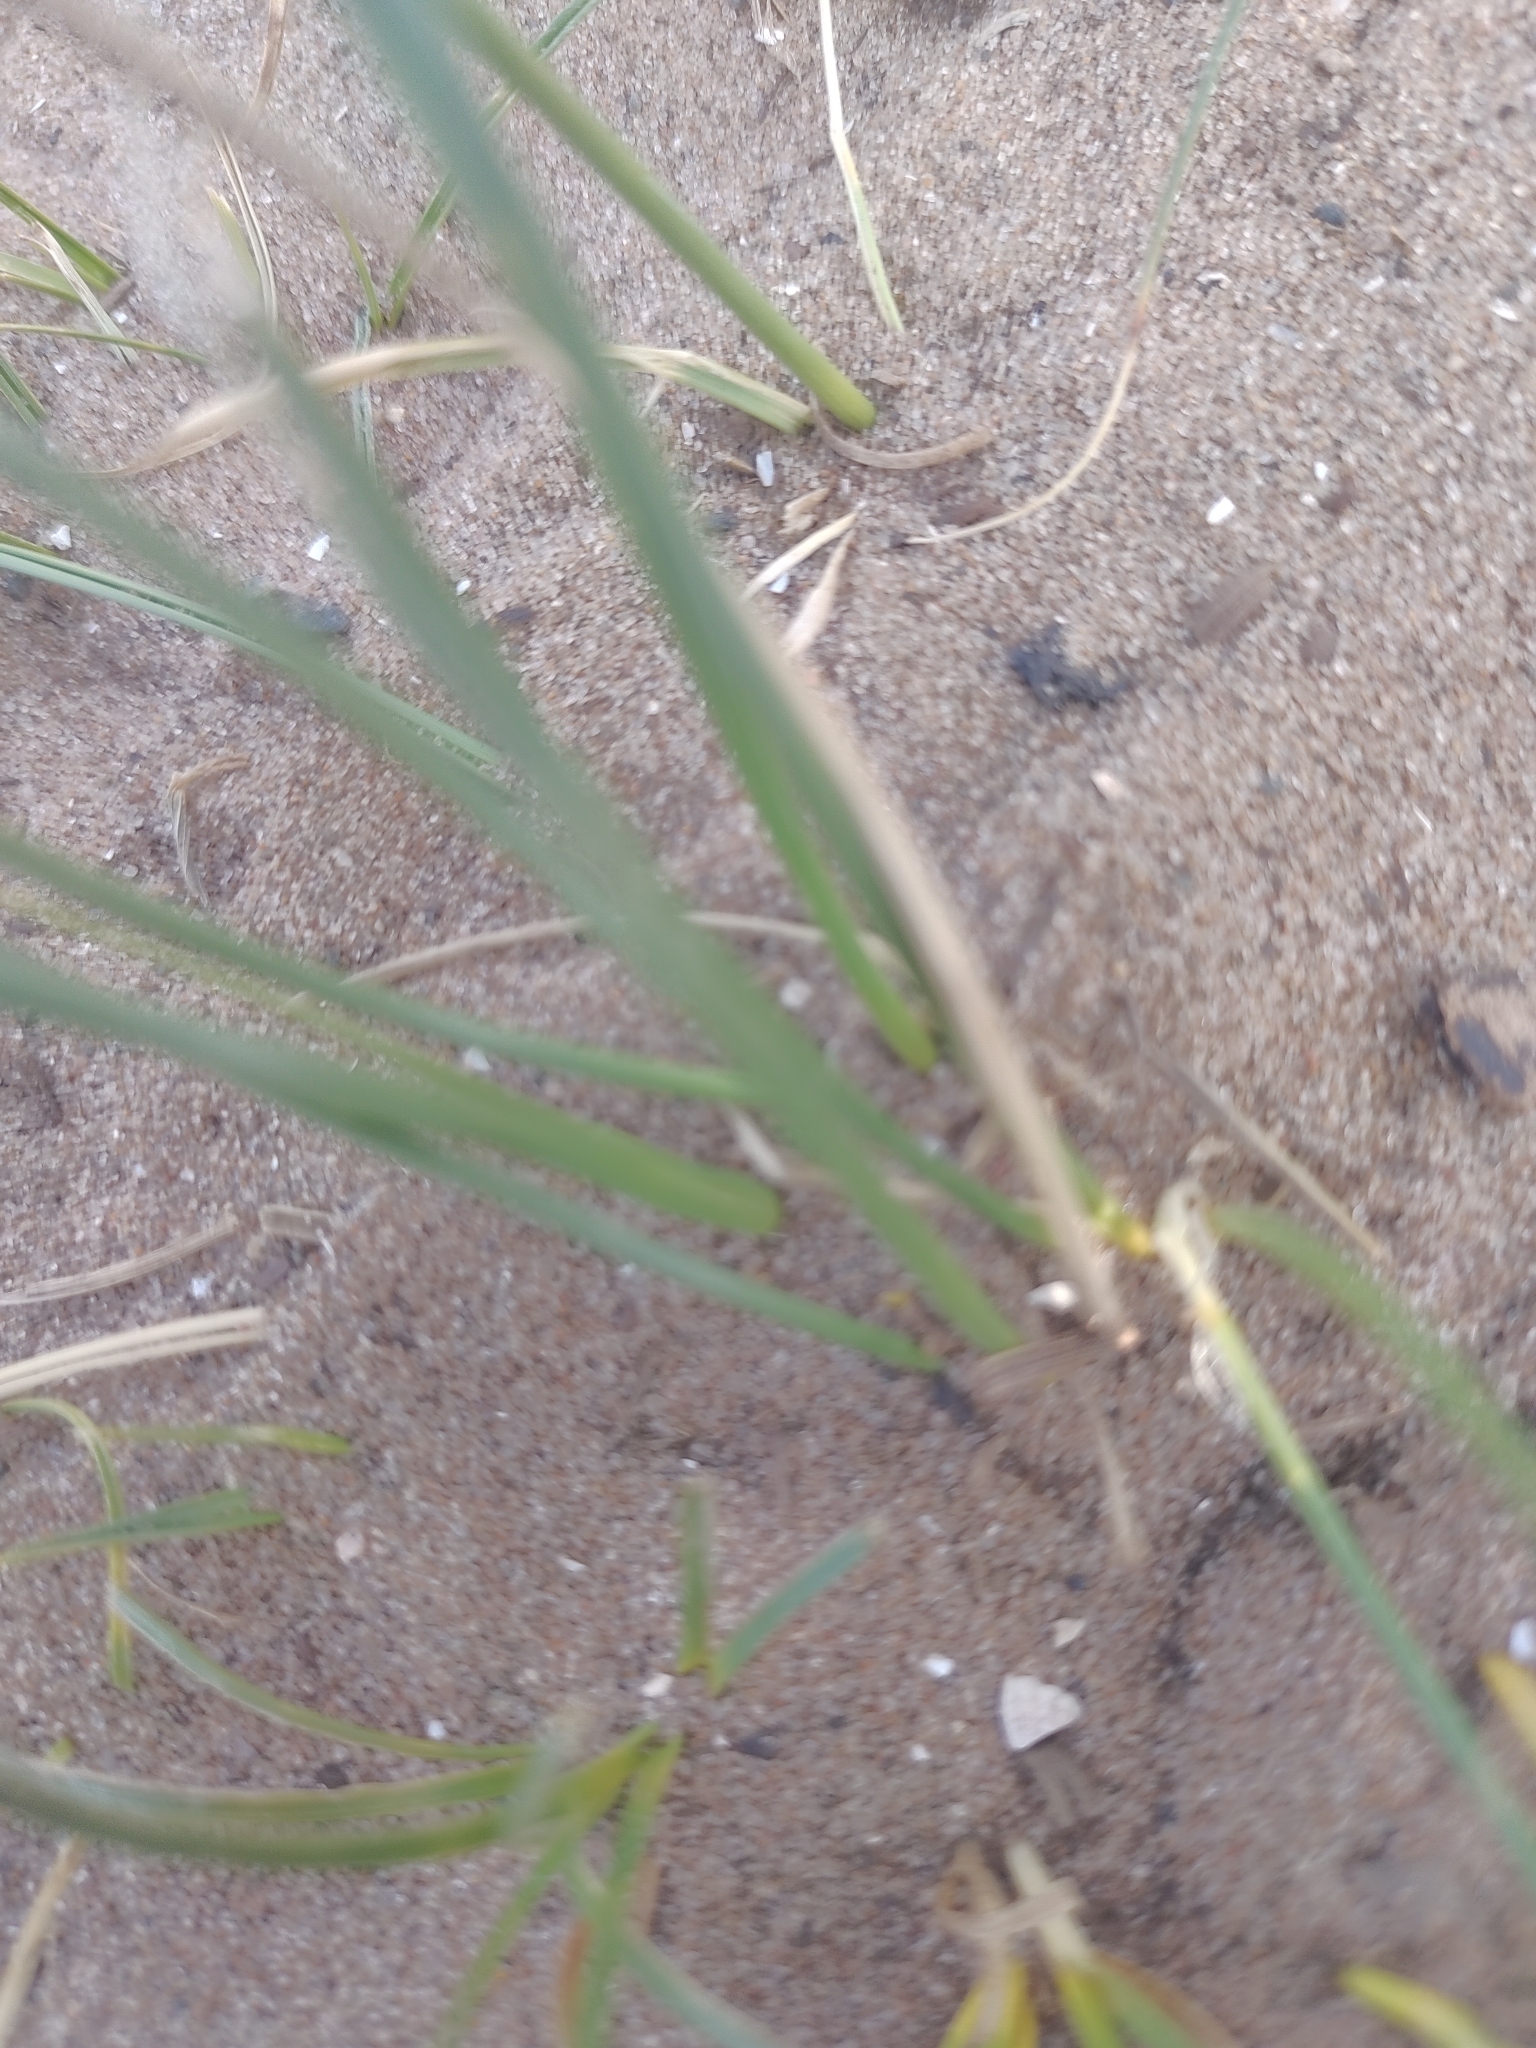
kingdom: Plantae
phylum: Tracheophyta
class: Liliopsida
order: Poales
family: Poaceae
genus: Calamagrostis
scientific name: Calamagrostis arenaria
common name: European beachgrass
